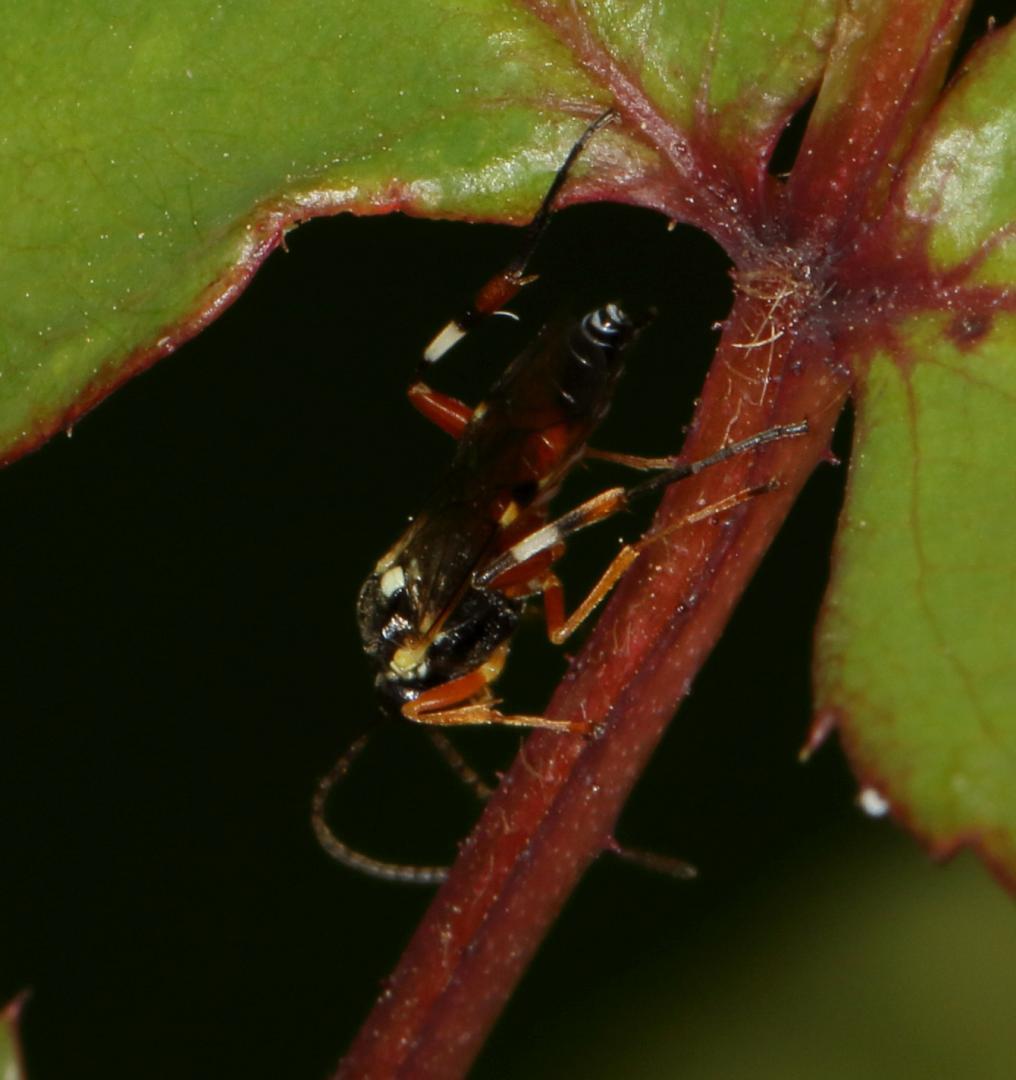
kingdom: Animalia
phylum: Arthropoda
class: Insecta
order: Hymenoptera
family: Ichneumonidae
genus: Diplazon
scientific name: Diplazon laetatorius
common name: Parasitoid wasp
